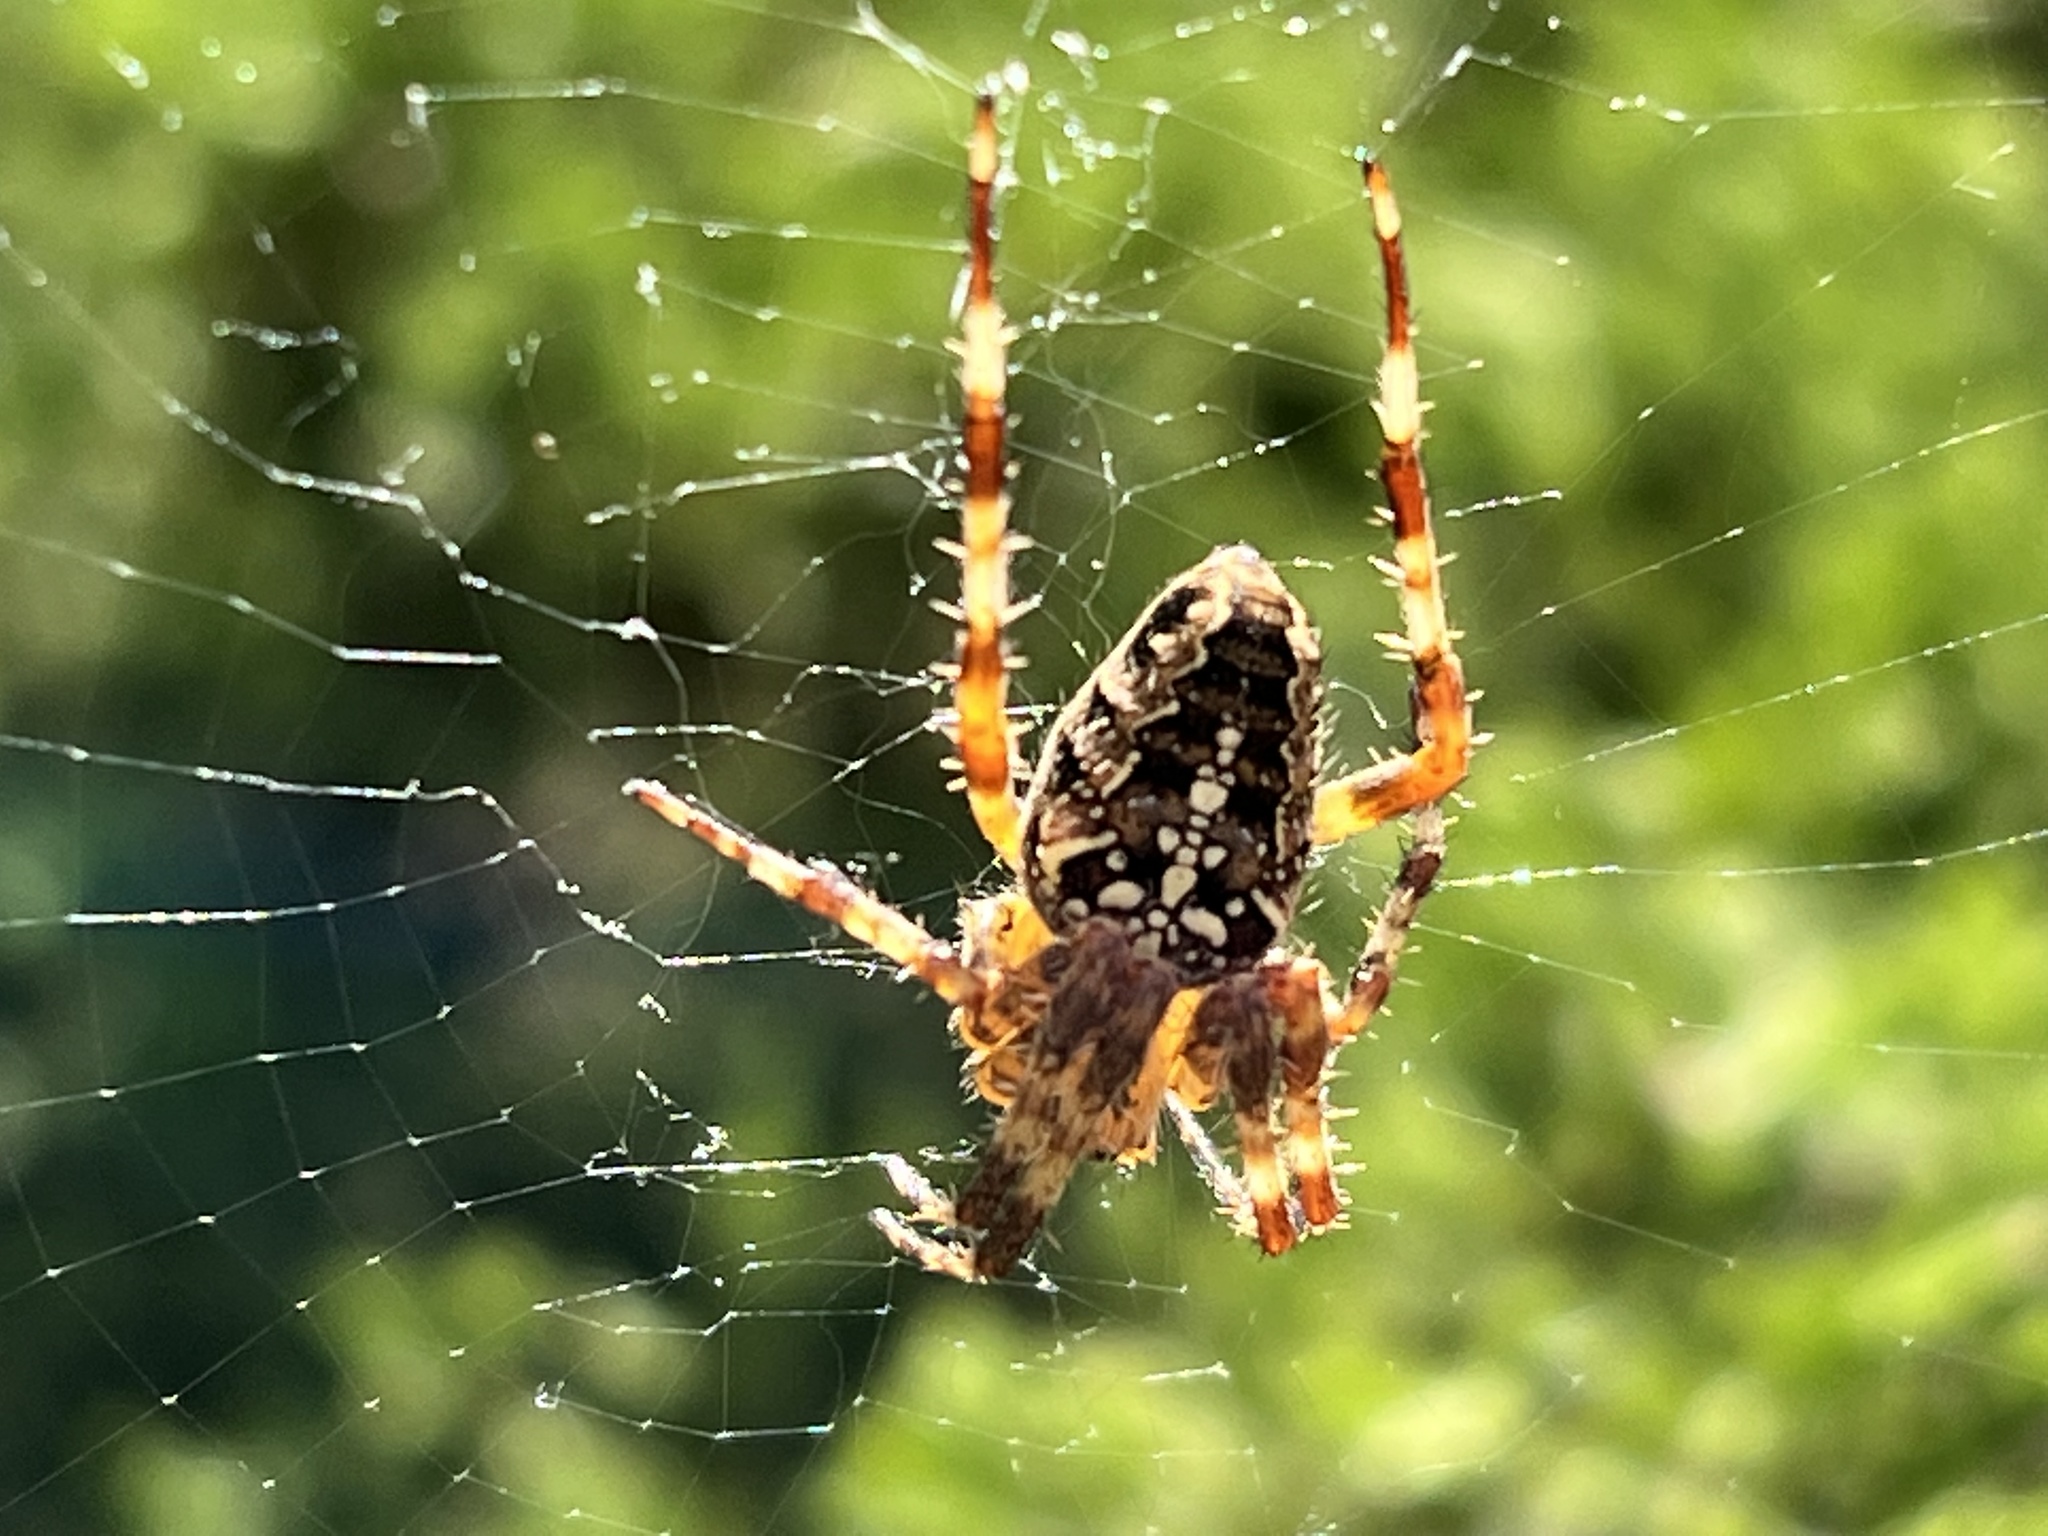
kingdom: Animalia
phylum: Arthropoda
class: Arachnida
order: Araneae
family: Araneidae
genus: Araneus
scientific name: Araneus diadematus
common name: Cross orbweaver
